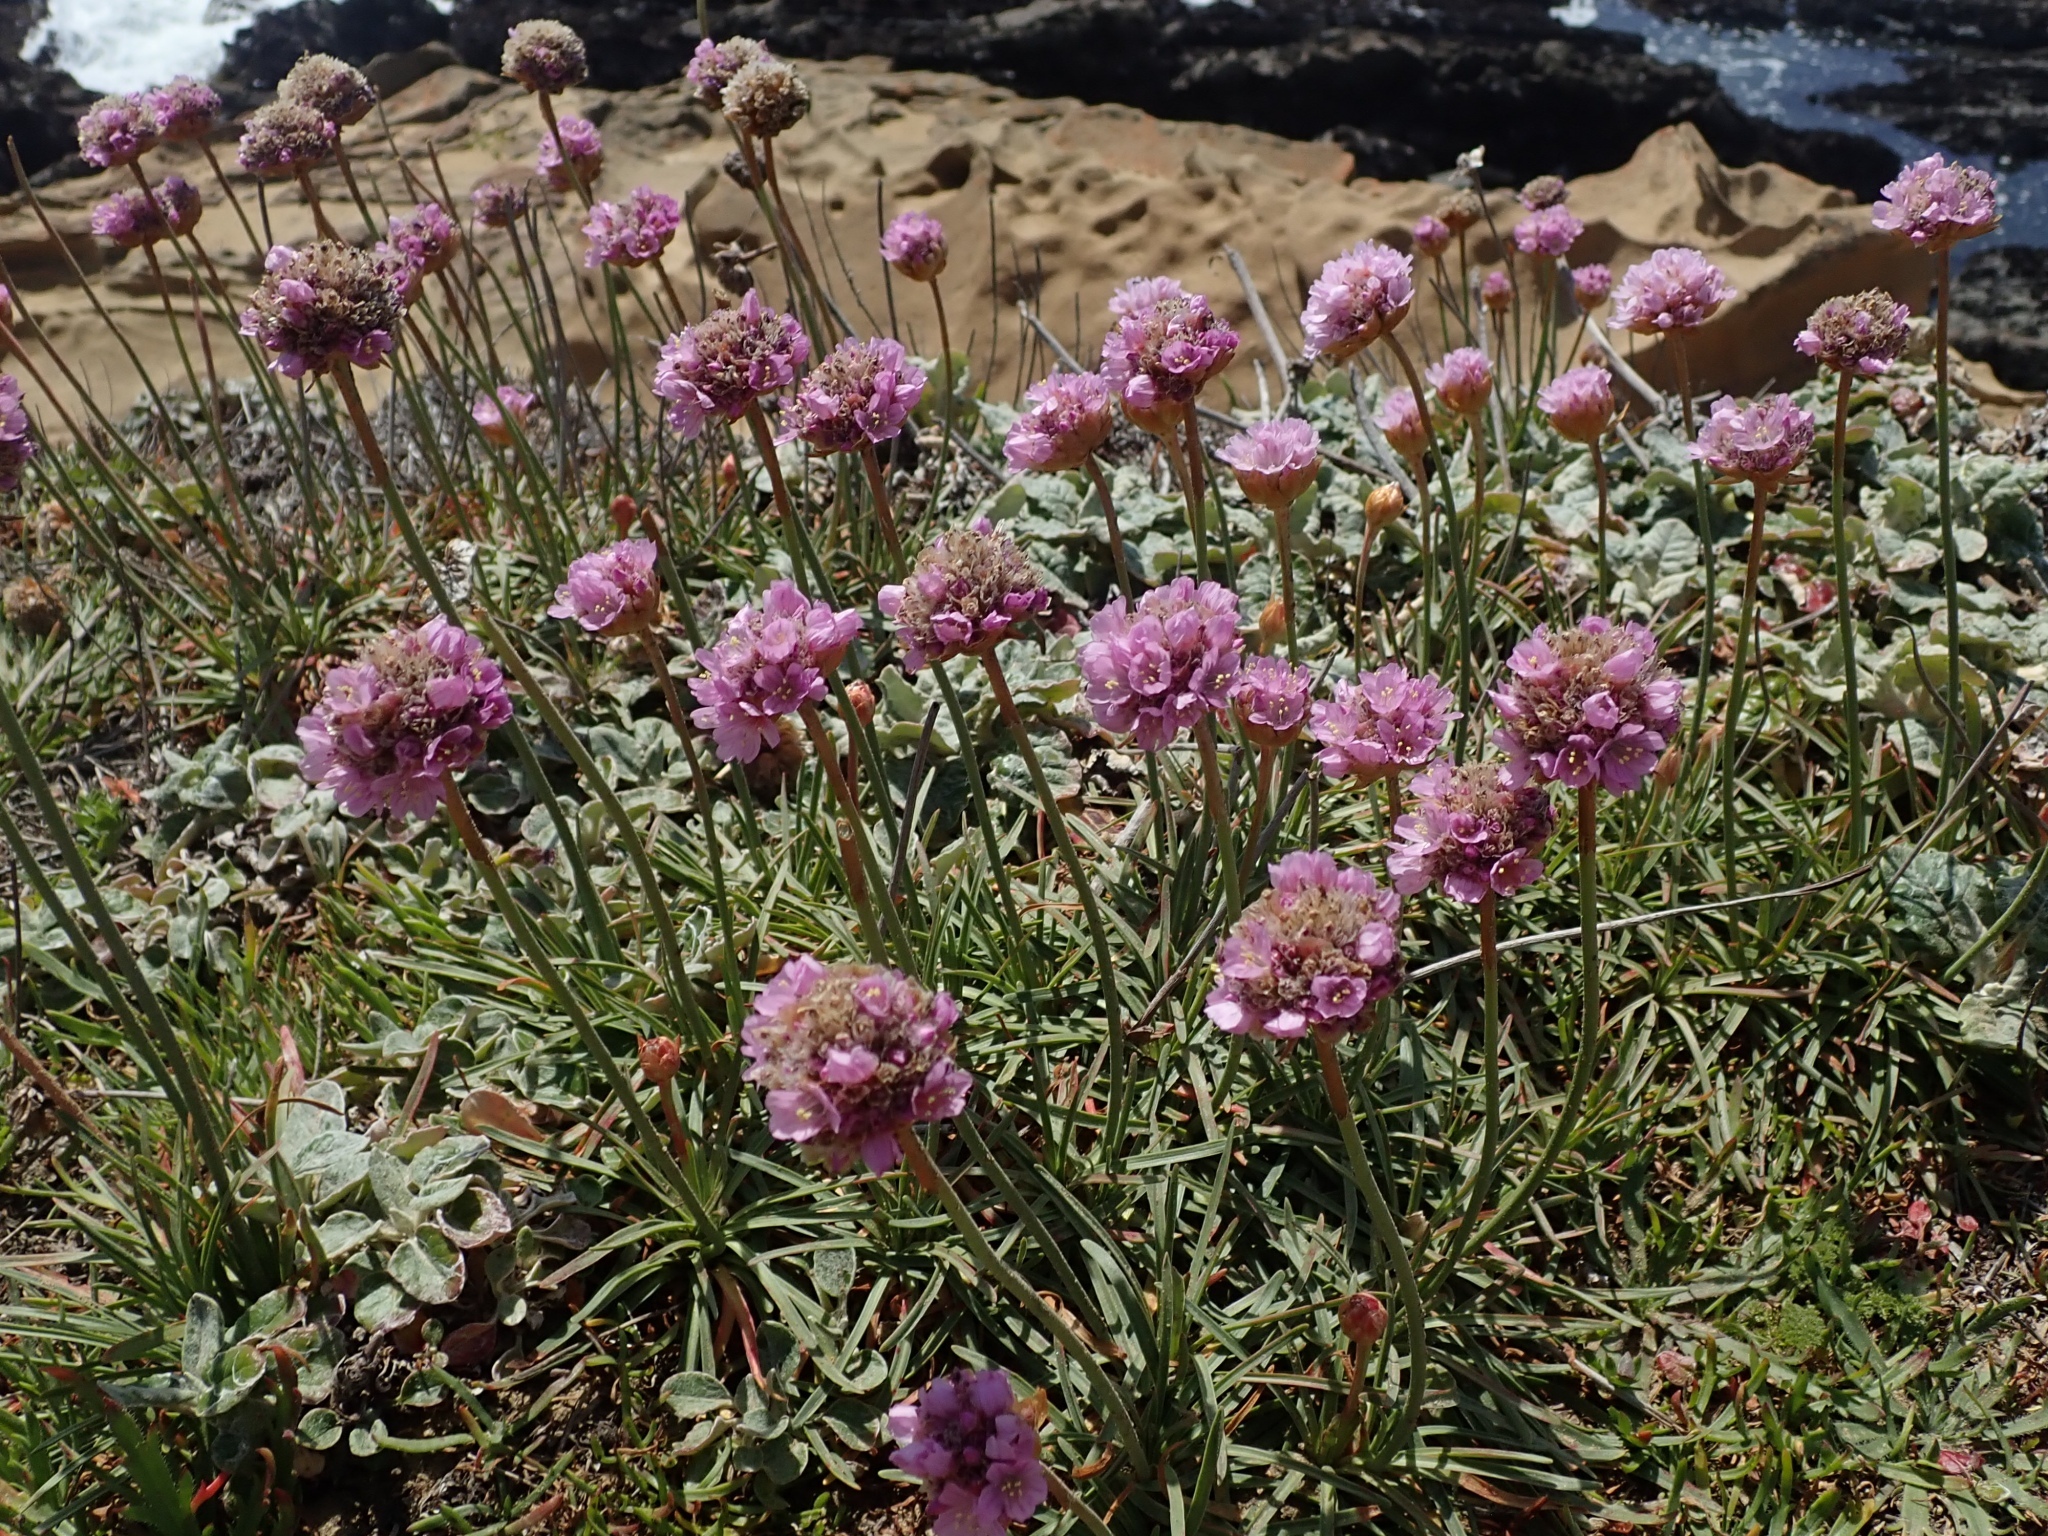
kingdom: Plantae
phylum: Tracheophyta
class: Magnoliopsida
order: Caryophyllales
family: Plumbaginaceae
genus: Armeria
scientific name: Armeria maritima
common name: Thrift
